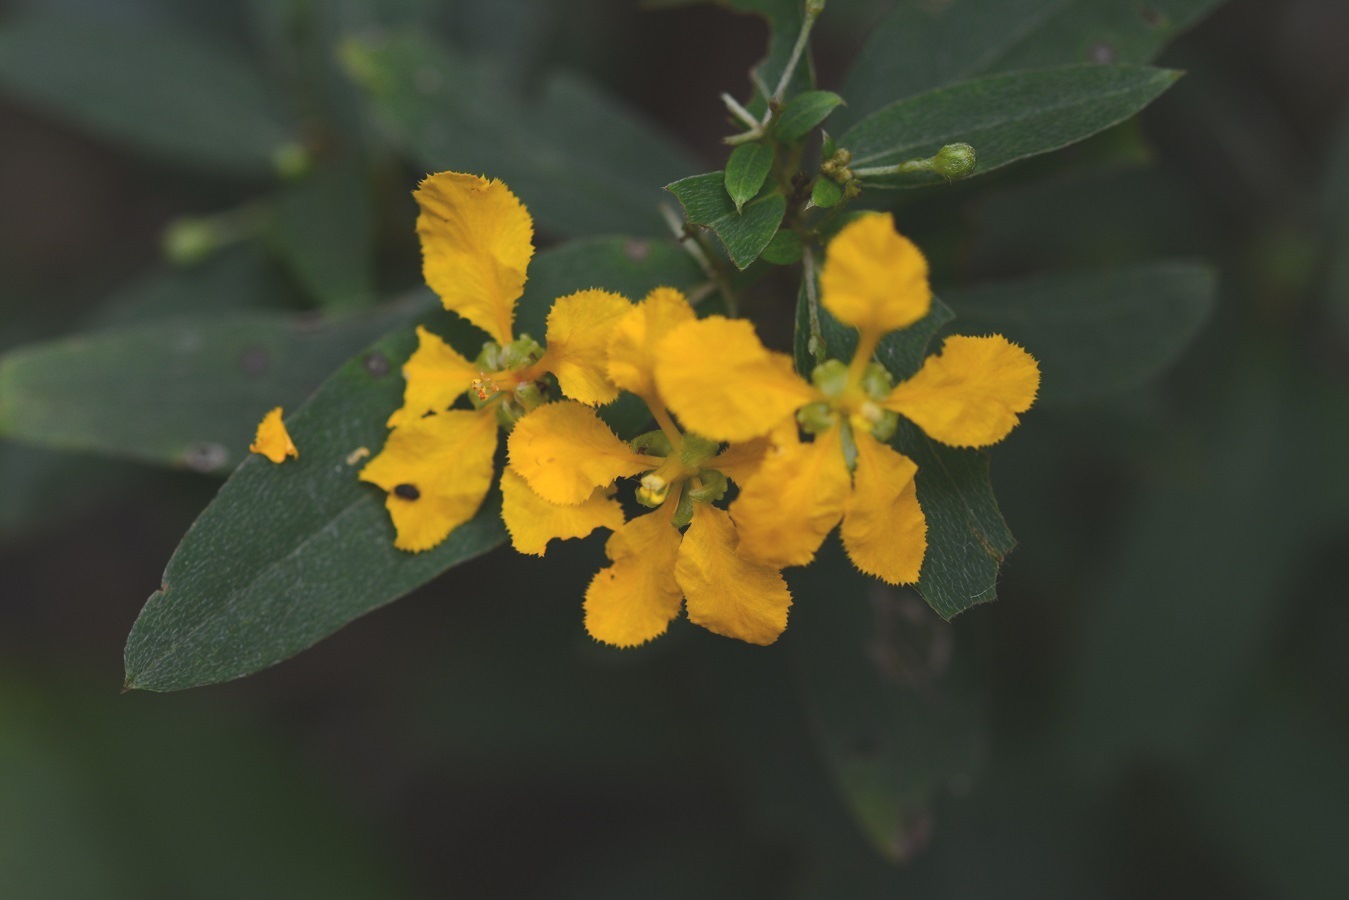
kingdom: Plantae
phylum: Tracheophyta
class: Magnoliopsida
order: Malpighiales
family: Malpighiaceae
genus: Gaudichaudia
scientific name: Gaudichaudia cynanchoides
